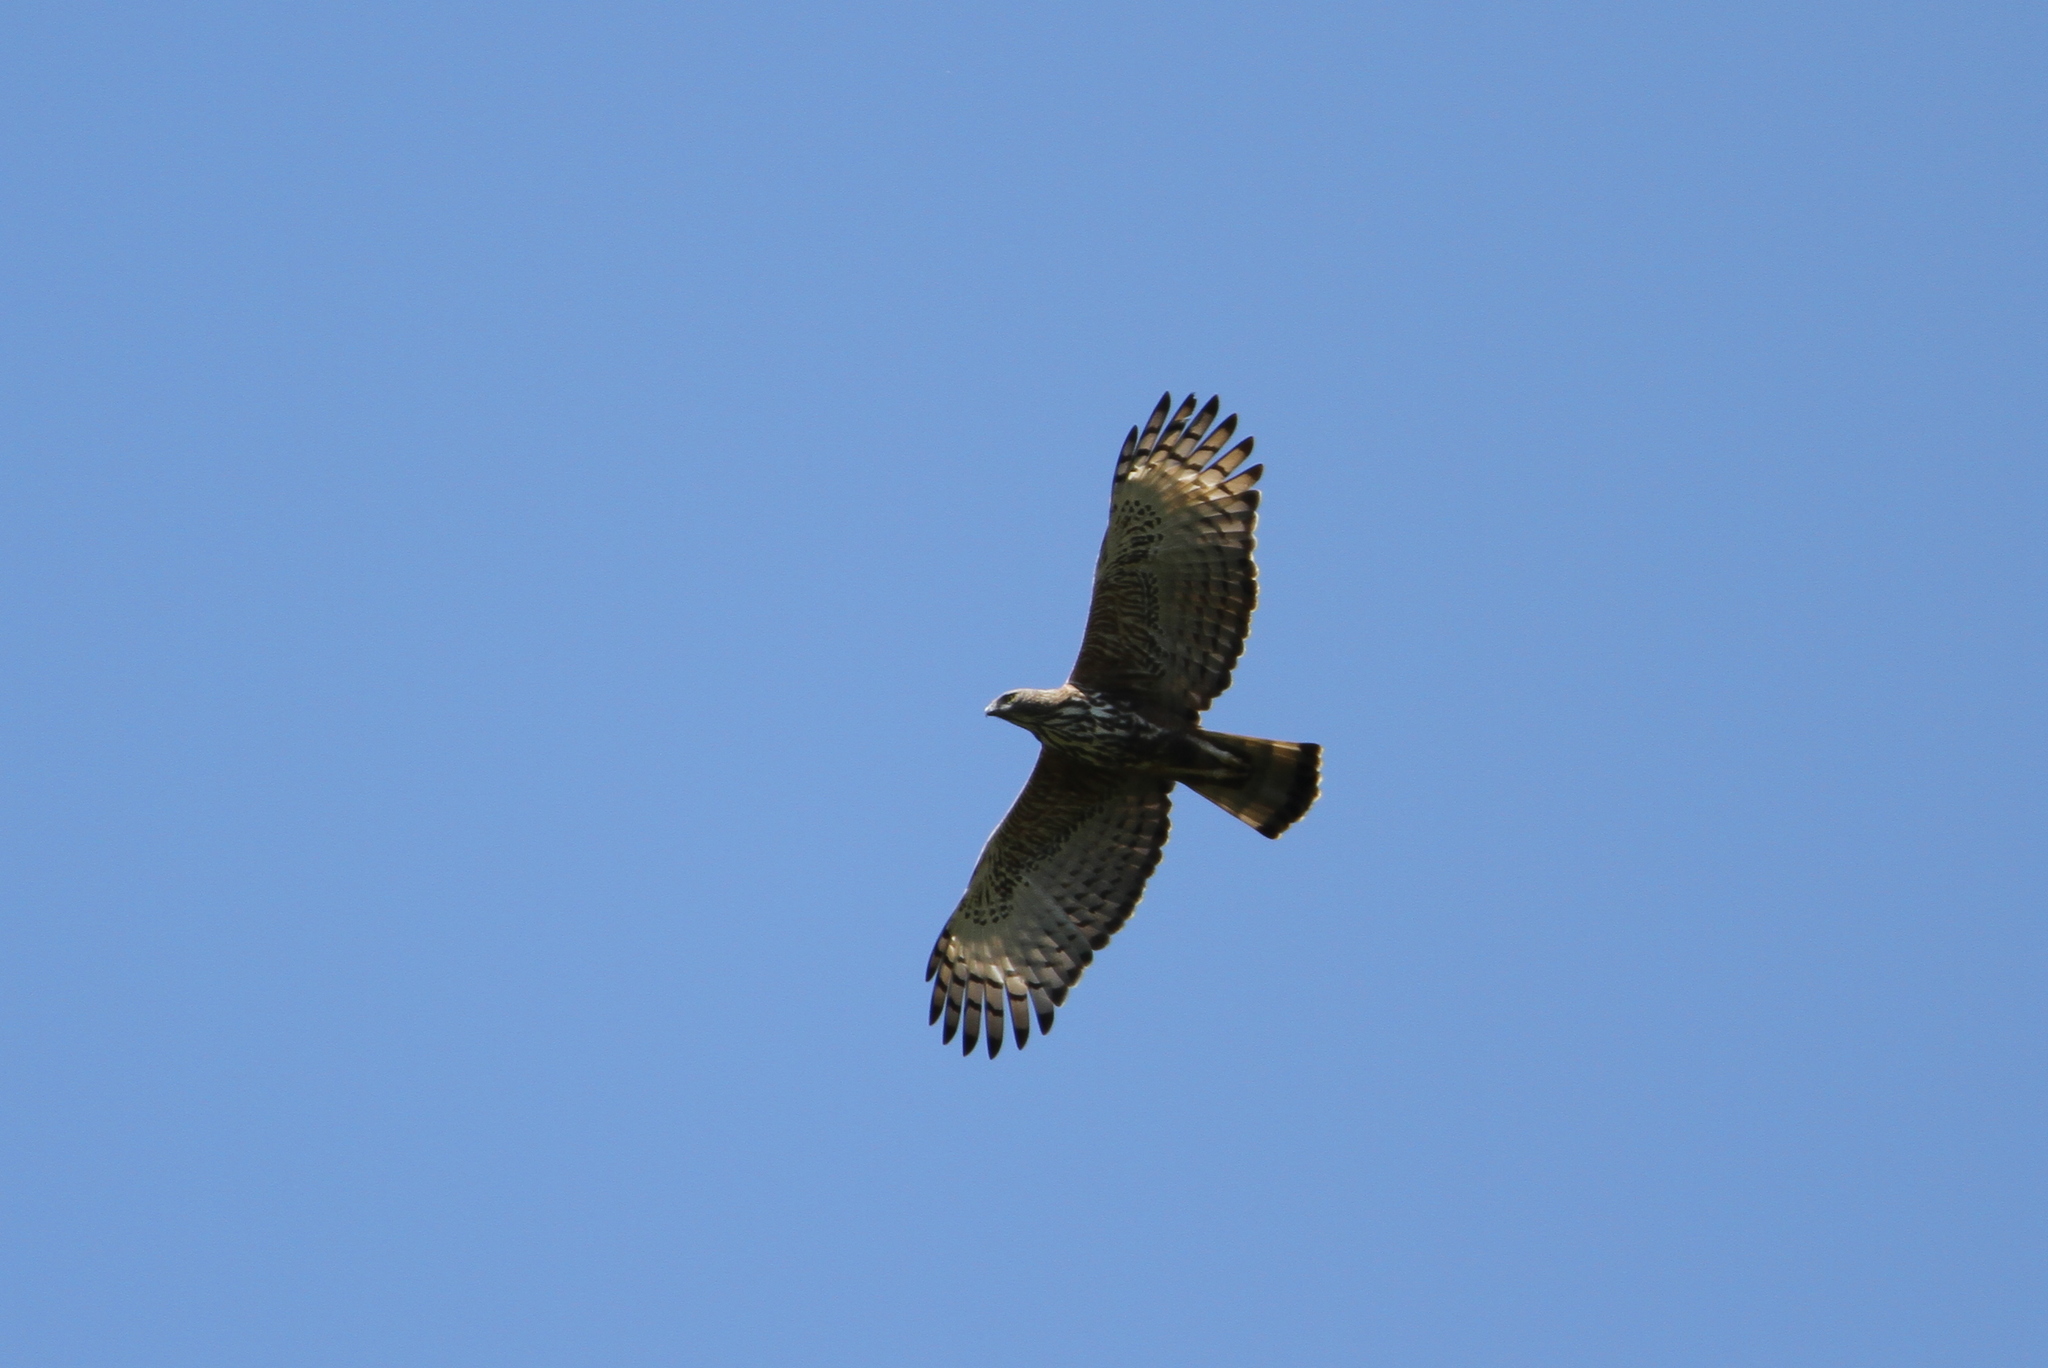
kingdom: Animalia
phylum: Chordata
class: Aves
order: Accipitriformes
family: Accipitridae
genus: Nisaetus
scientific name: Nisaetus cirrhatus
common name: Changeable hawk-eagle
